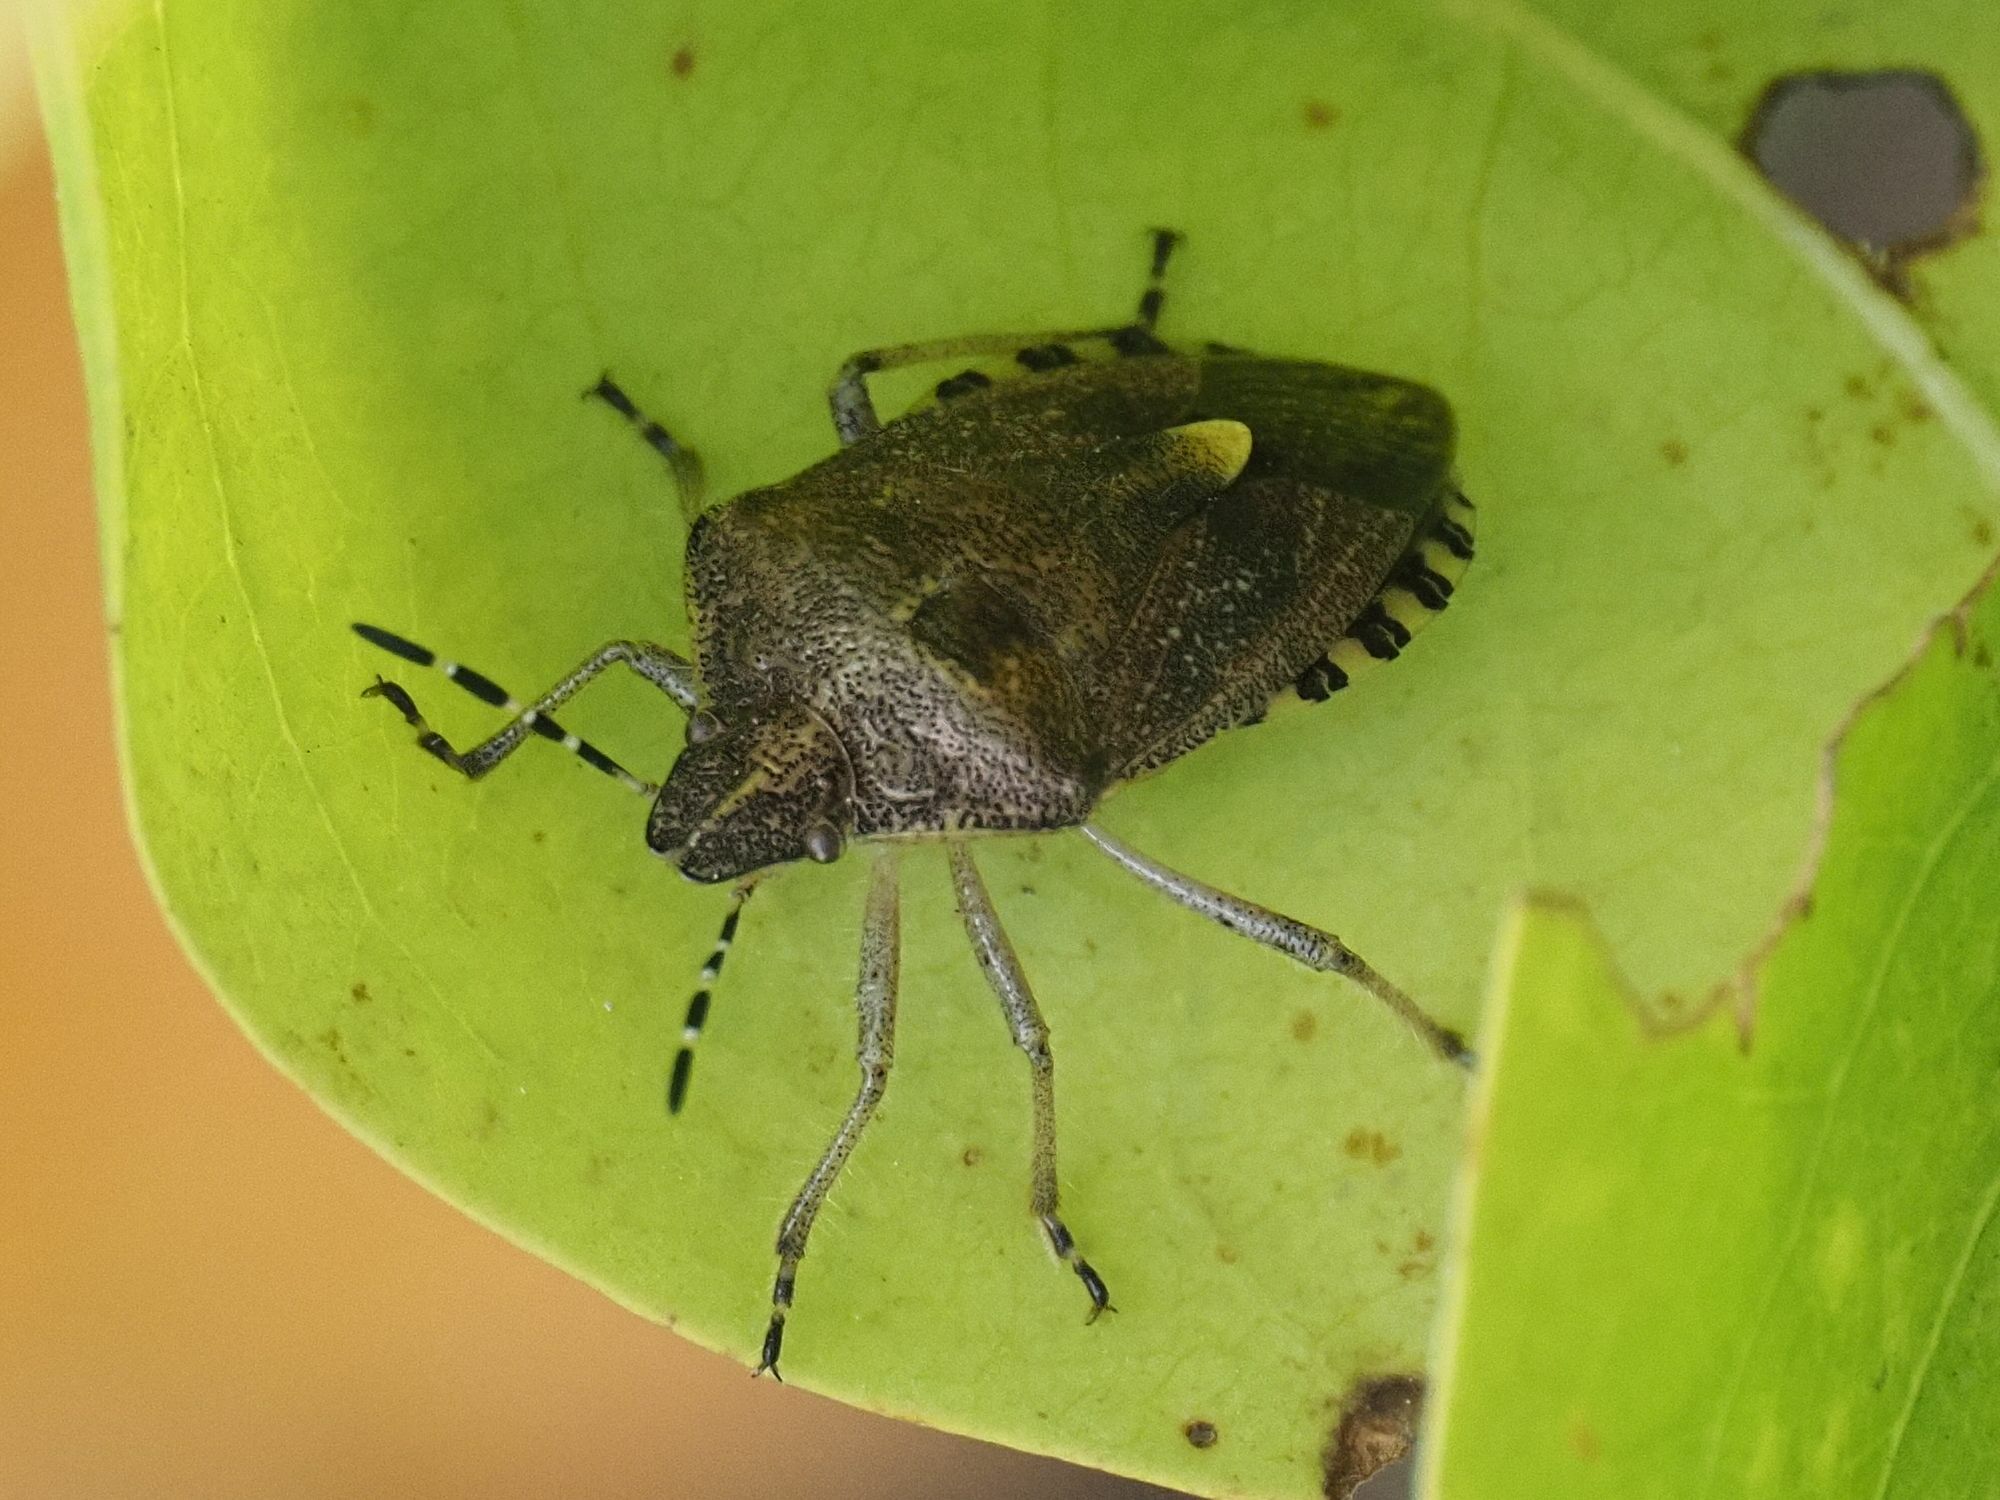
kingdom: Animalia
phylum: Arthropoda
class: Insecta
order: Hemiptera
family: Pentatomidae
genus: Dolycoris
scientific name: Dolycoris baccarum
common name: Sloe bug
